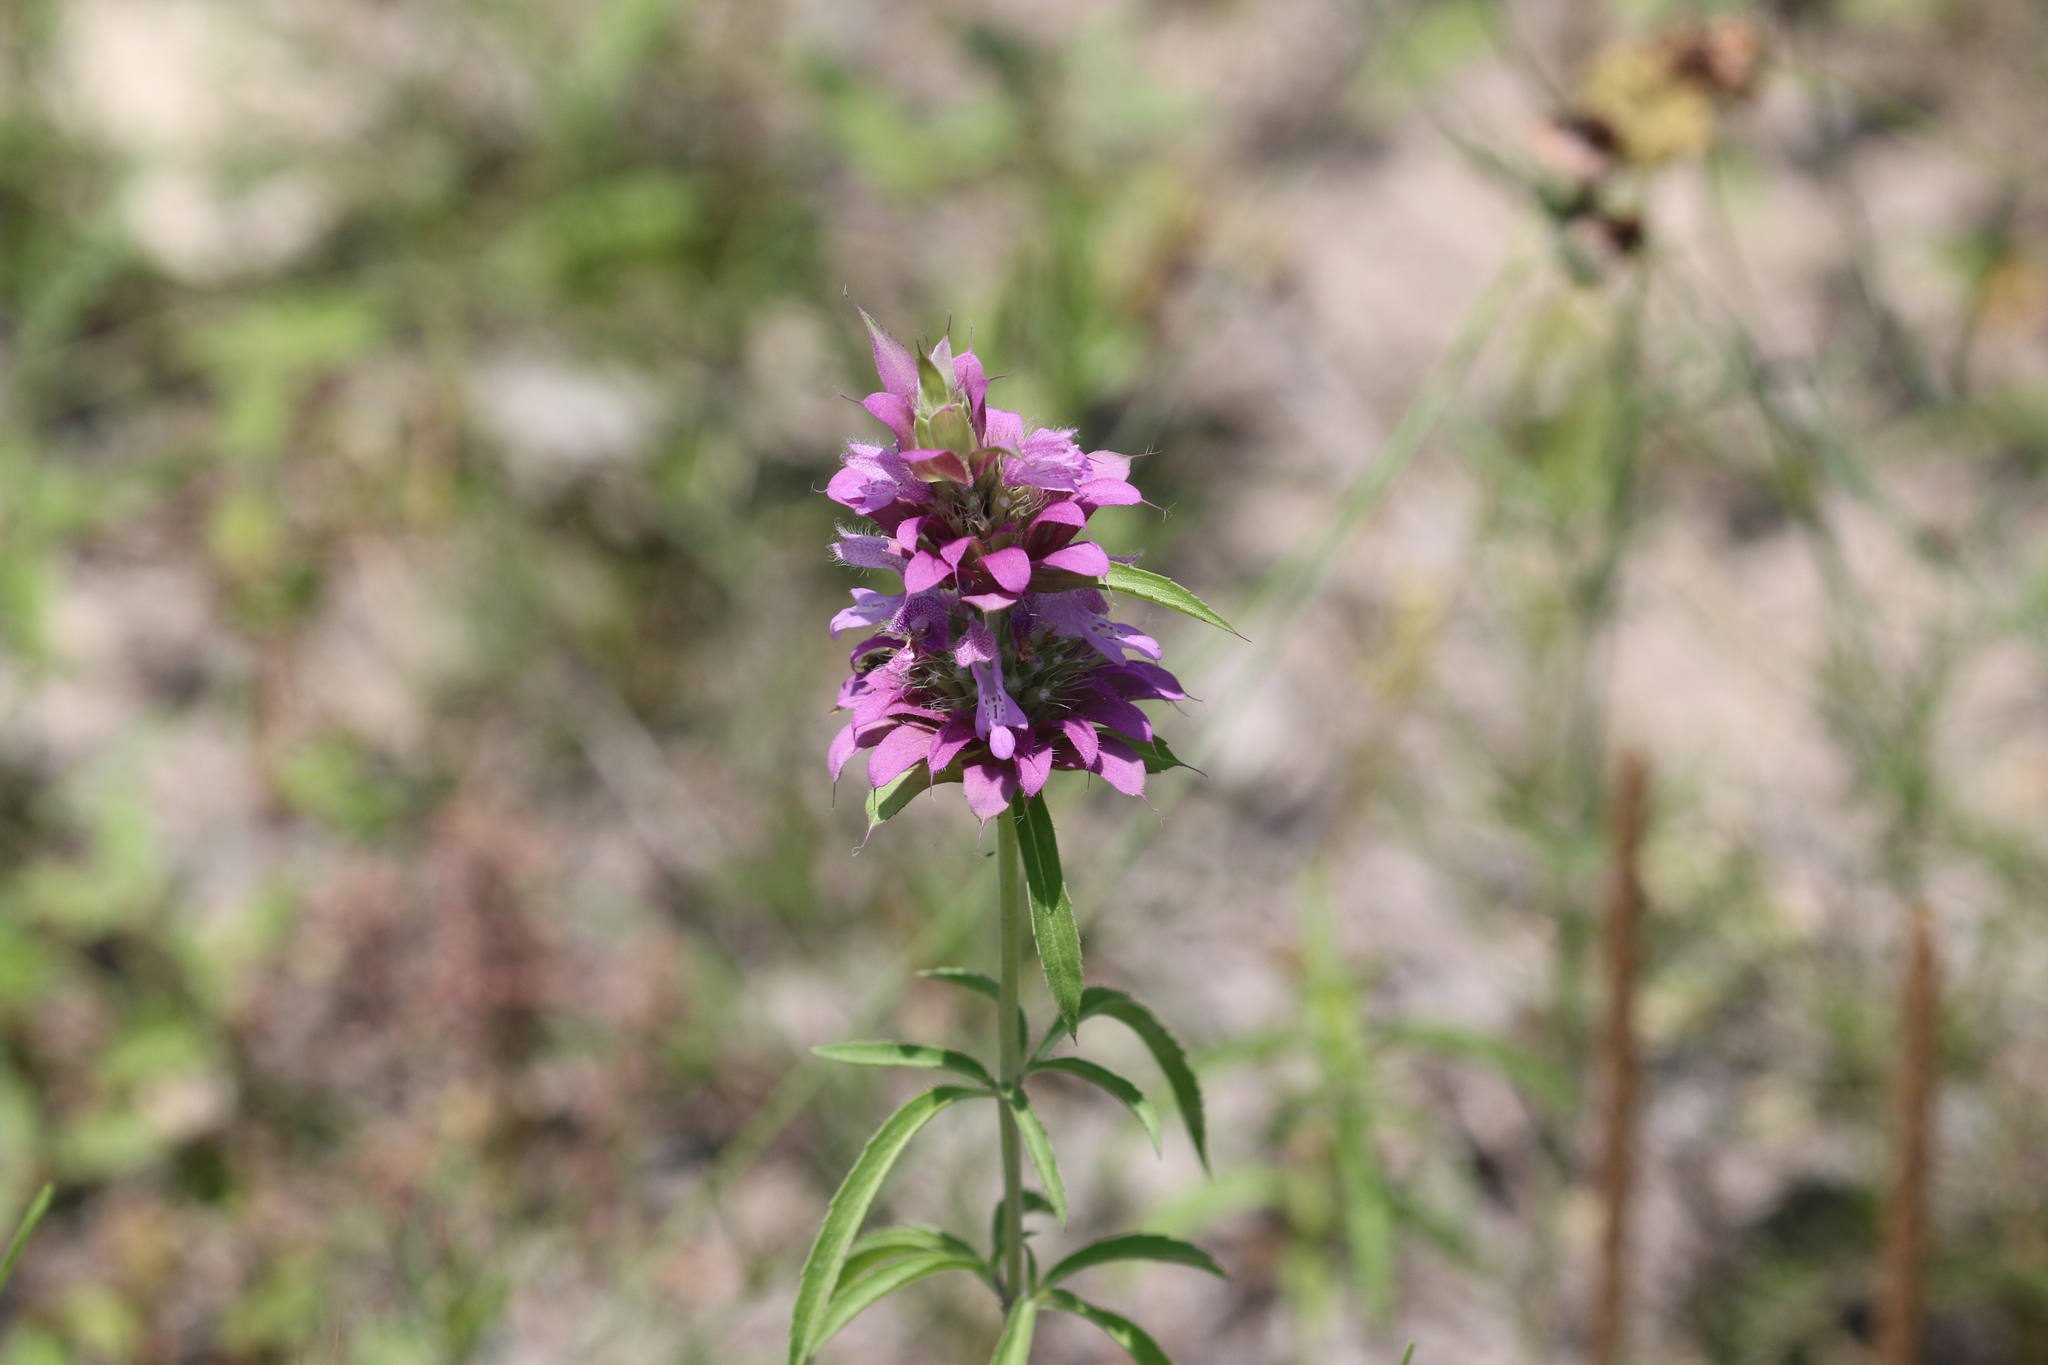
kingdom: Plantae
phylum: Tracheophyta
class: Magnoliopsida
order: Lamiales
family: Lamiaceae
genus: Monarda
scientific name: Monarda citriodora
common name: Lemon beebalm
